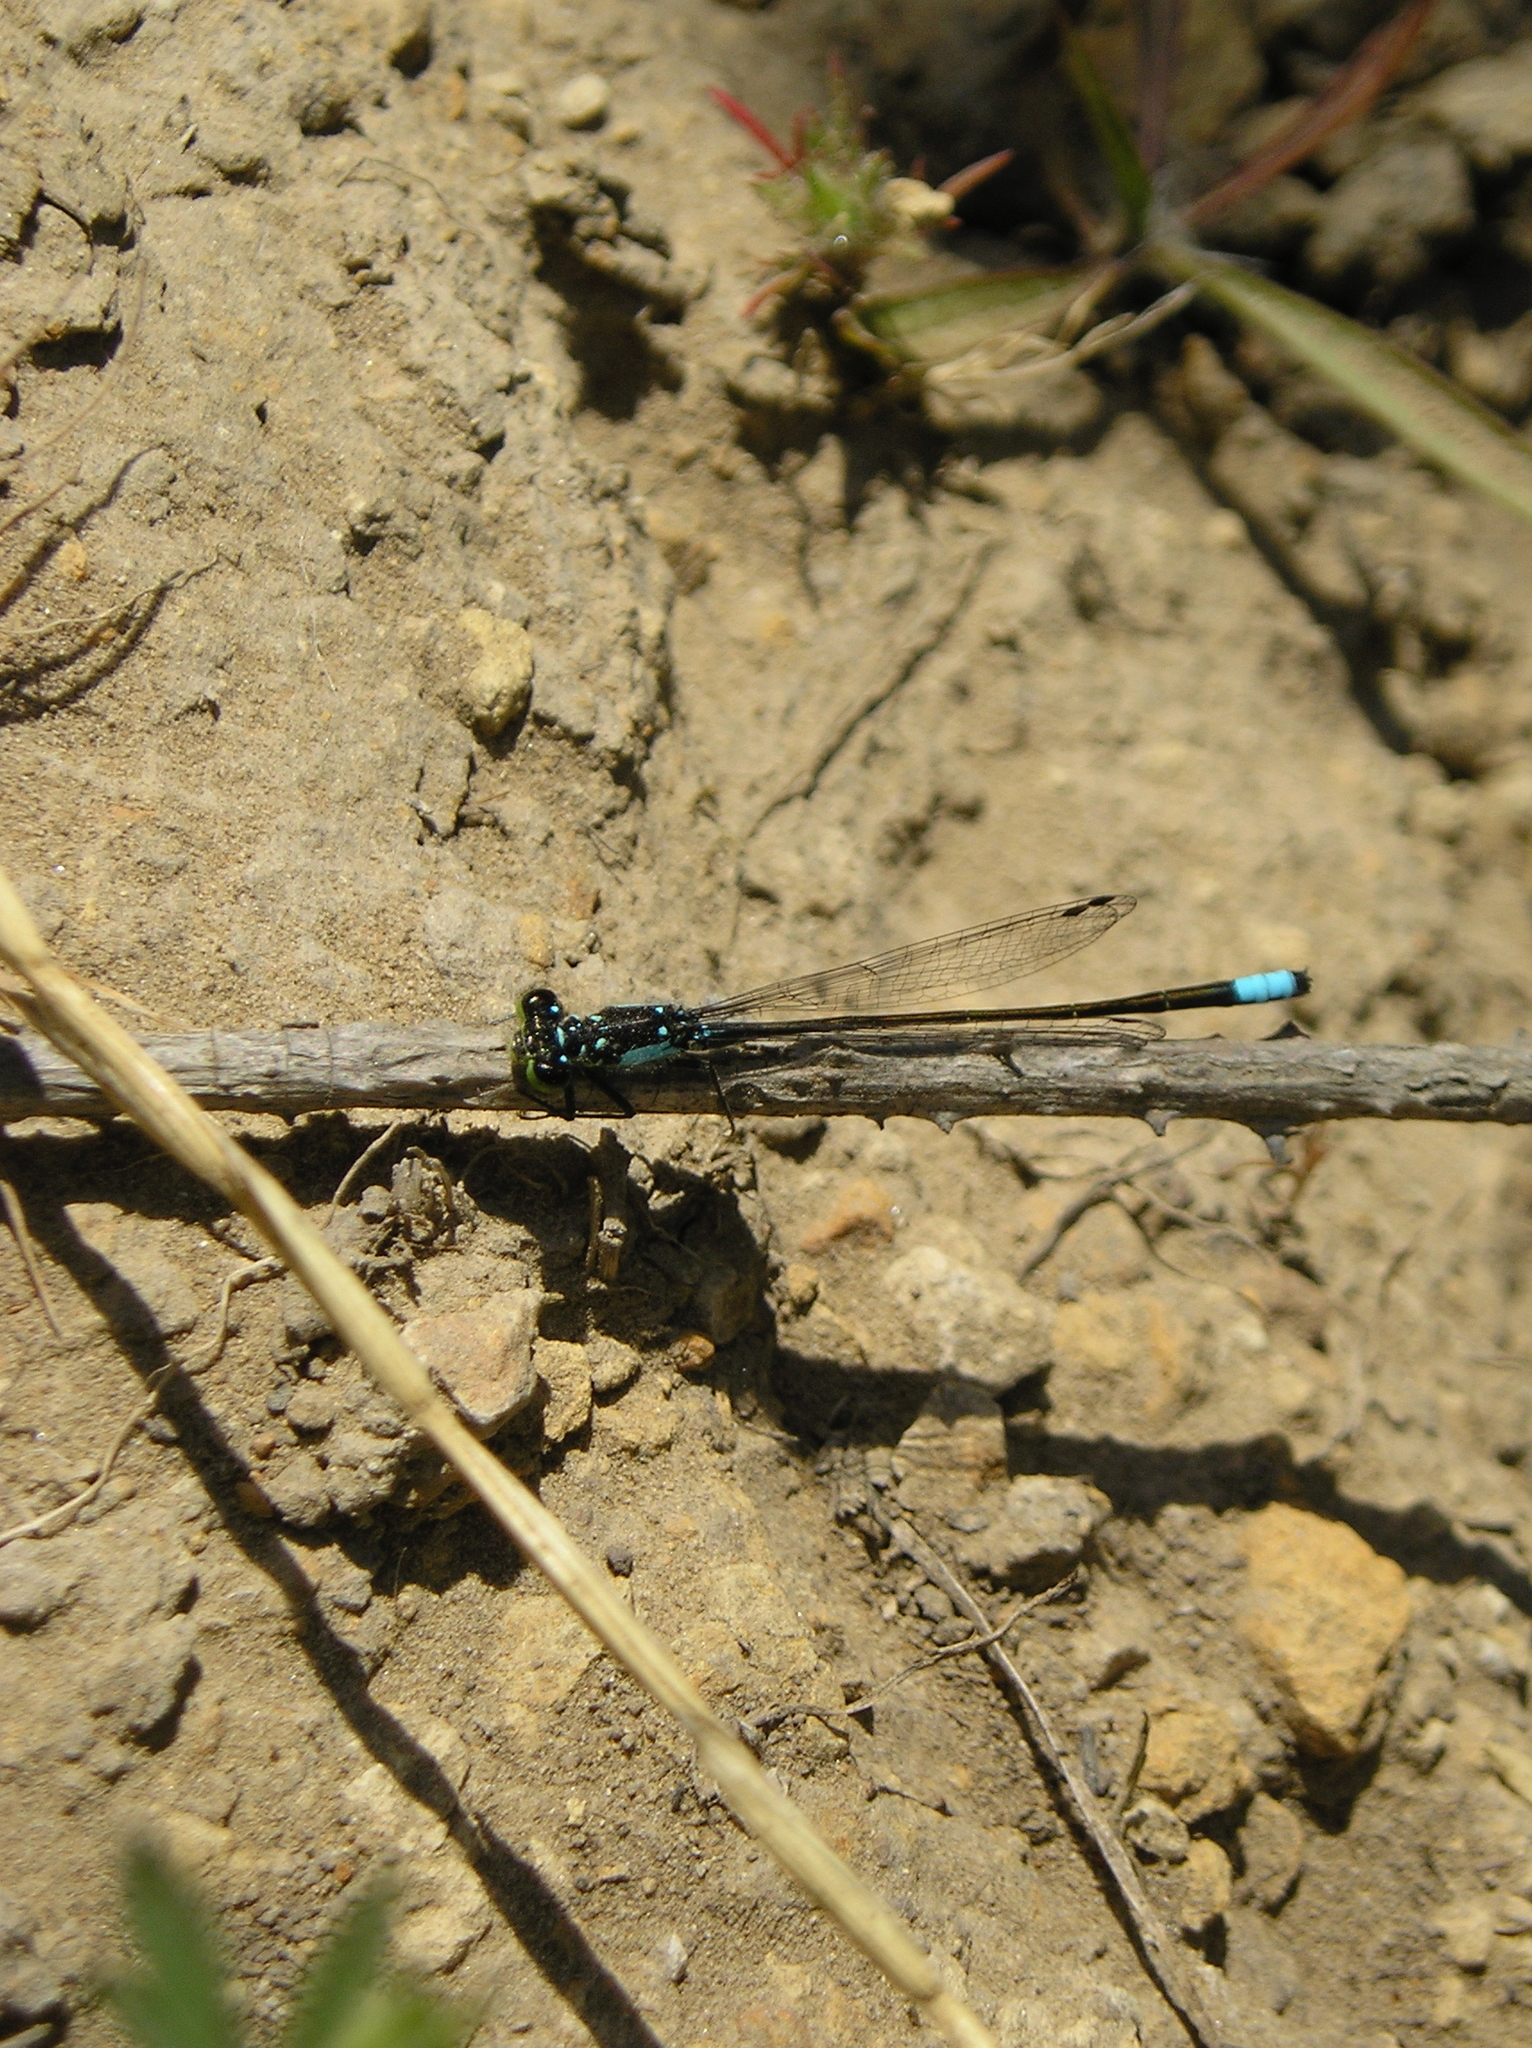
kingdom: Animalia
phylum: Arthropoda
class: Insecta
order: Odonata
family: Coenagrionidae
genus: Ischnura
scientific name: Ischnura cervula
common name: Pacific forktail
